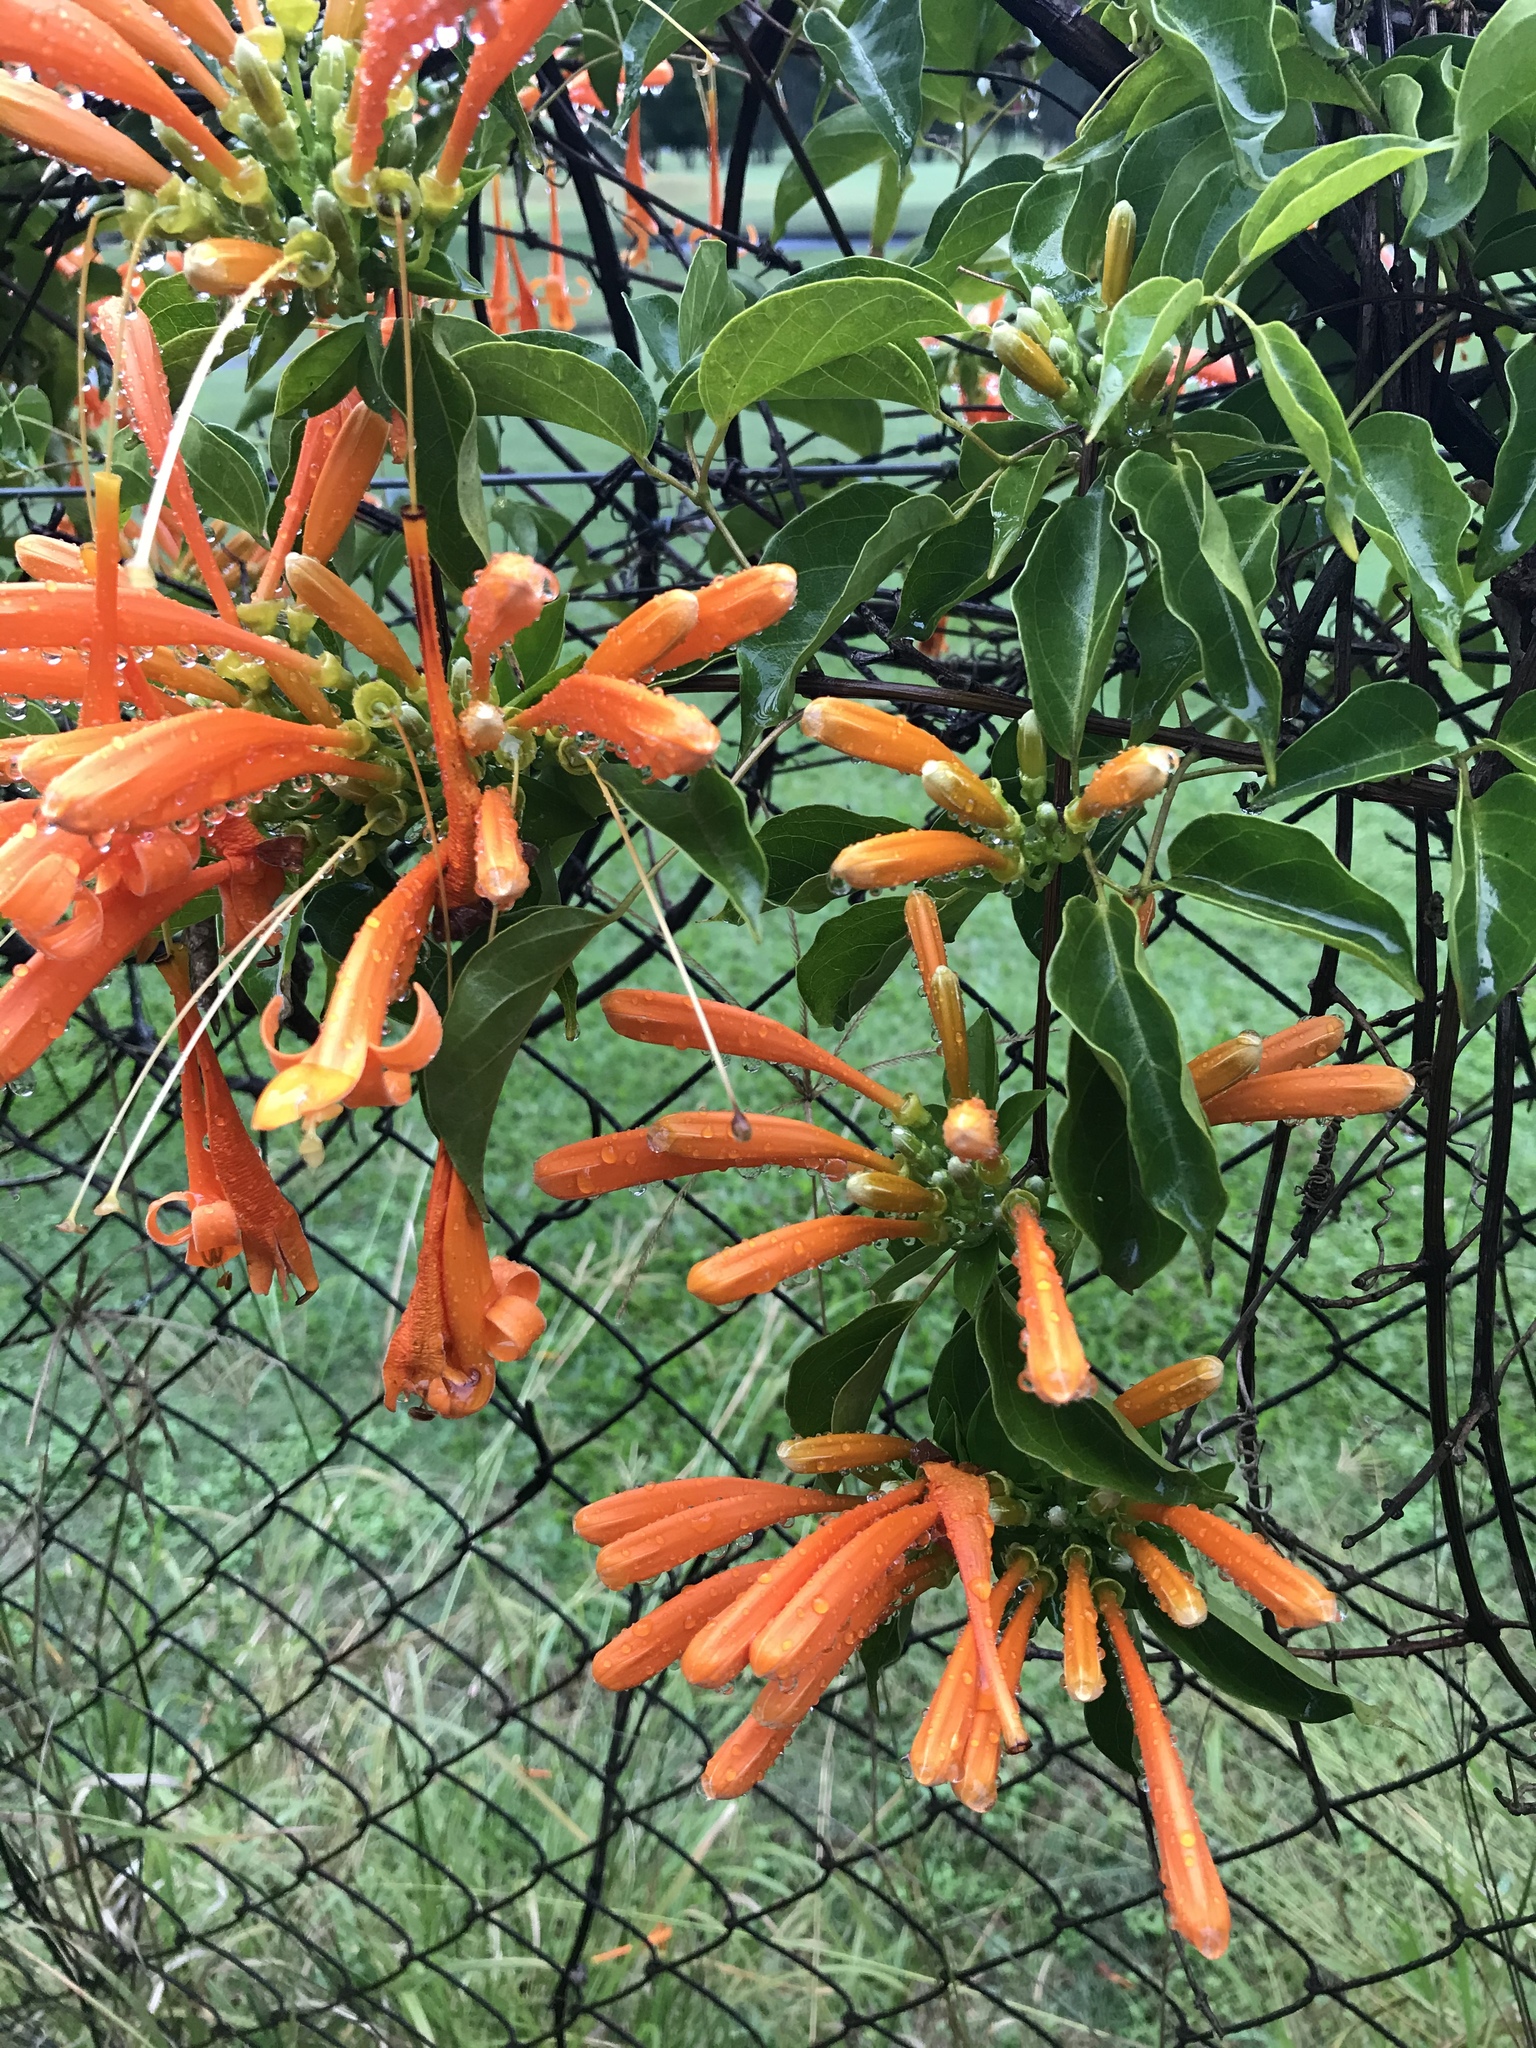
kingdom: Plantae
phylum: Tracheophyta
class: Magnoliopsida
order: Lamiales
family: Bignoniaceae
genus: Pyrostegia
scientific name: Pyrostegia venusta
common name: Flamevine
